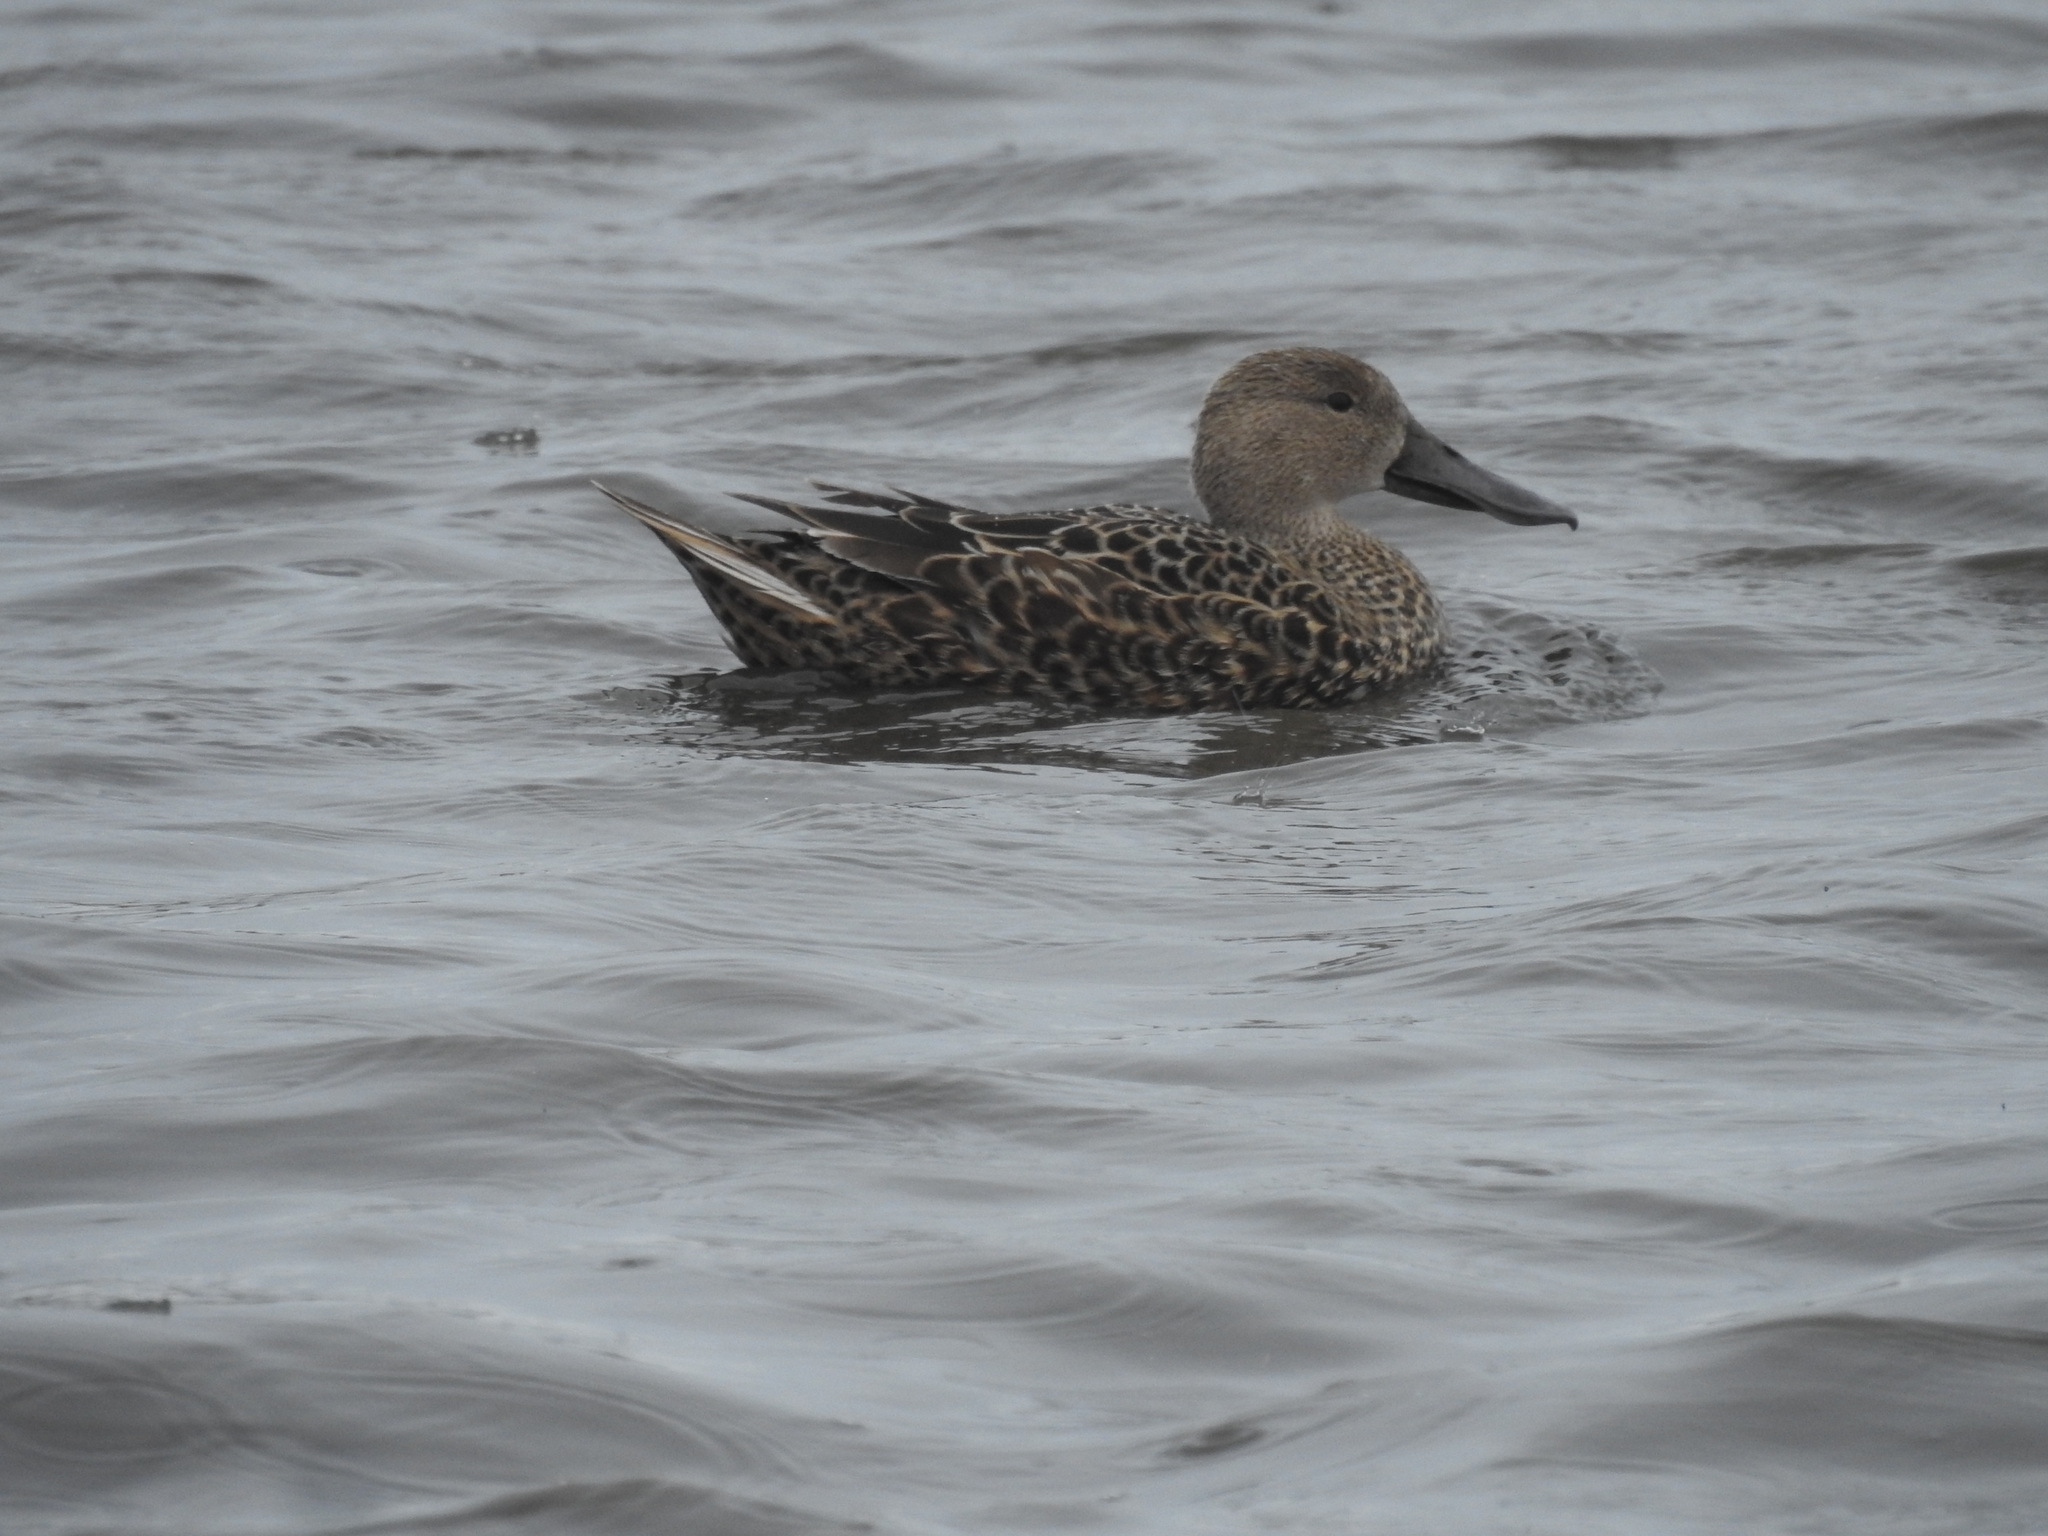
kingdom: Animalia
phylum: Chordata
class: Aves
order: Anseriformes
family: Anatidae
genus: Spatula
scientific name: Spatula platalea
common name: Red shoveler
